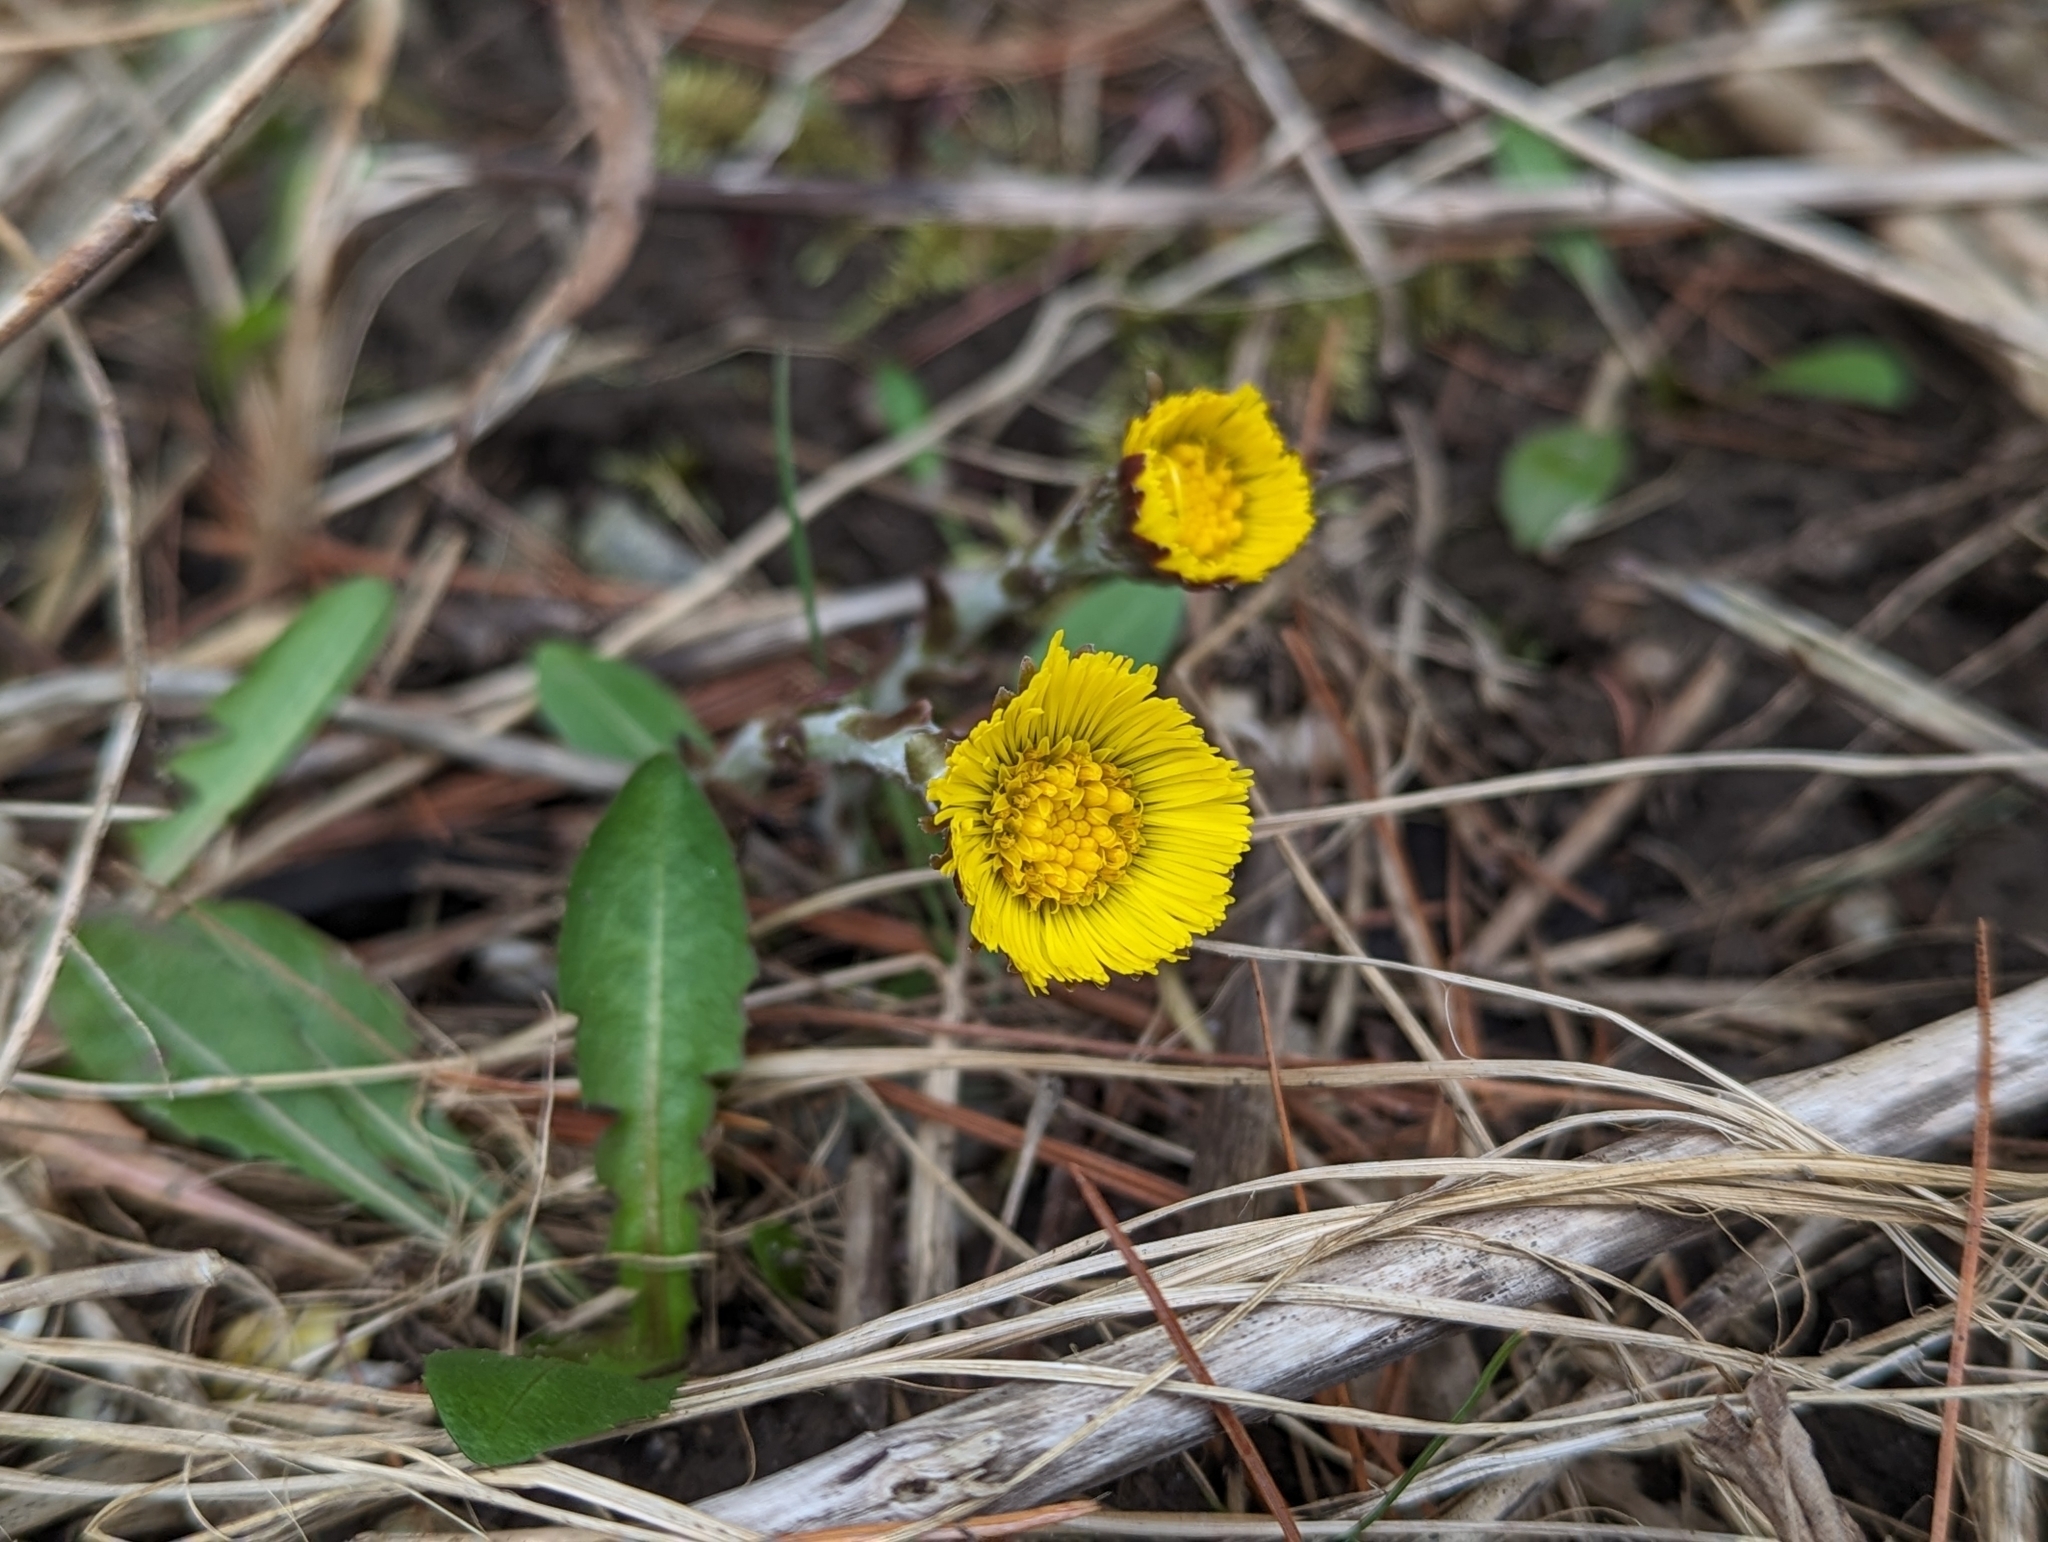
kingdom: Plantae
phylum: Tracheophyta
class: Magnoliopsida
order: Asterales
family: Asteraceae
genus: Tussilago
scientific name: Tussilago farfara
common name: Coltsfoot
